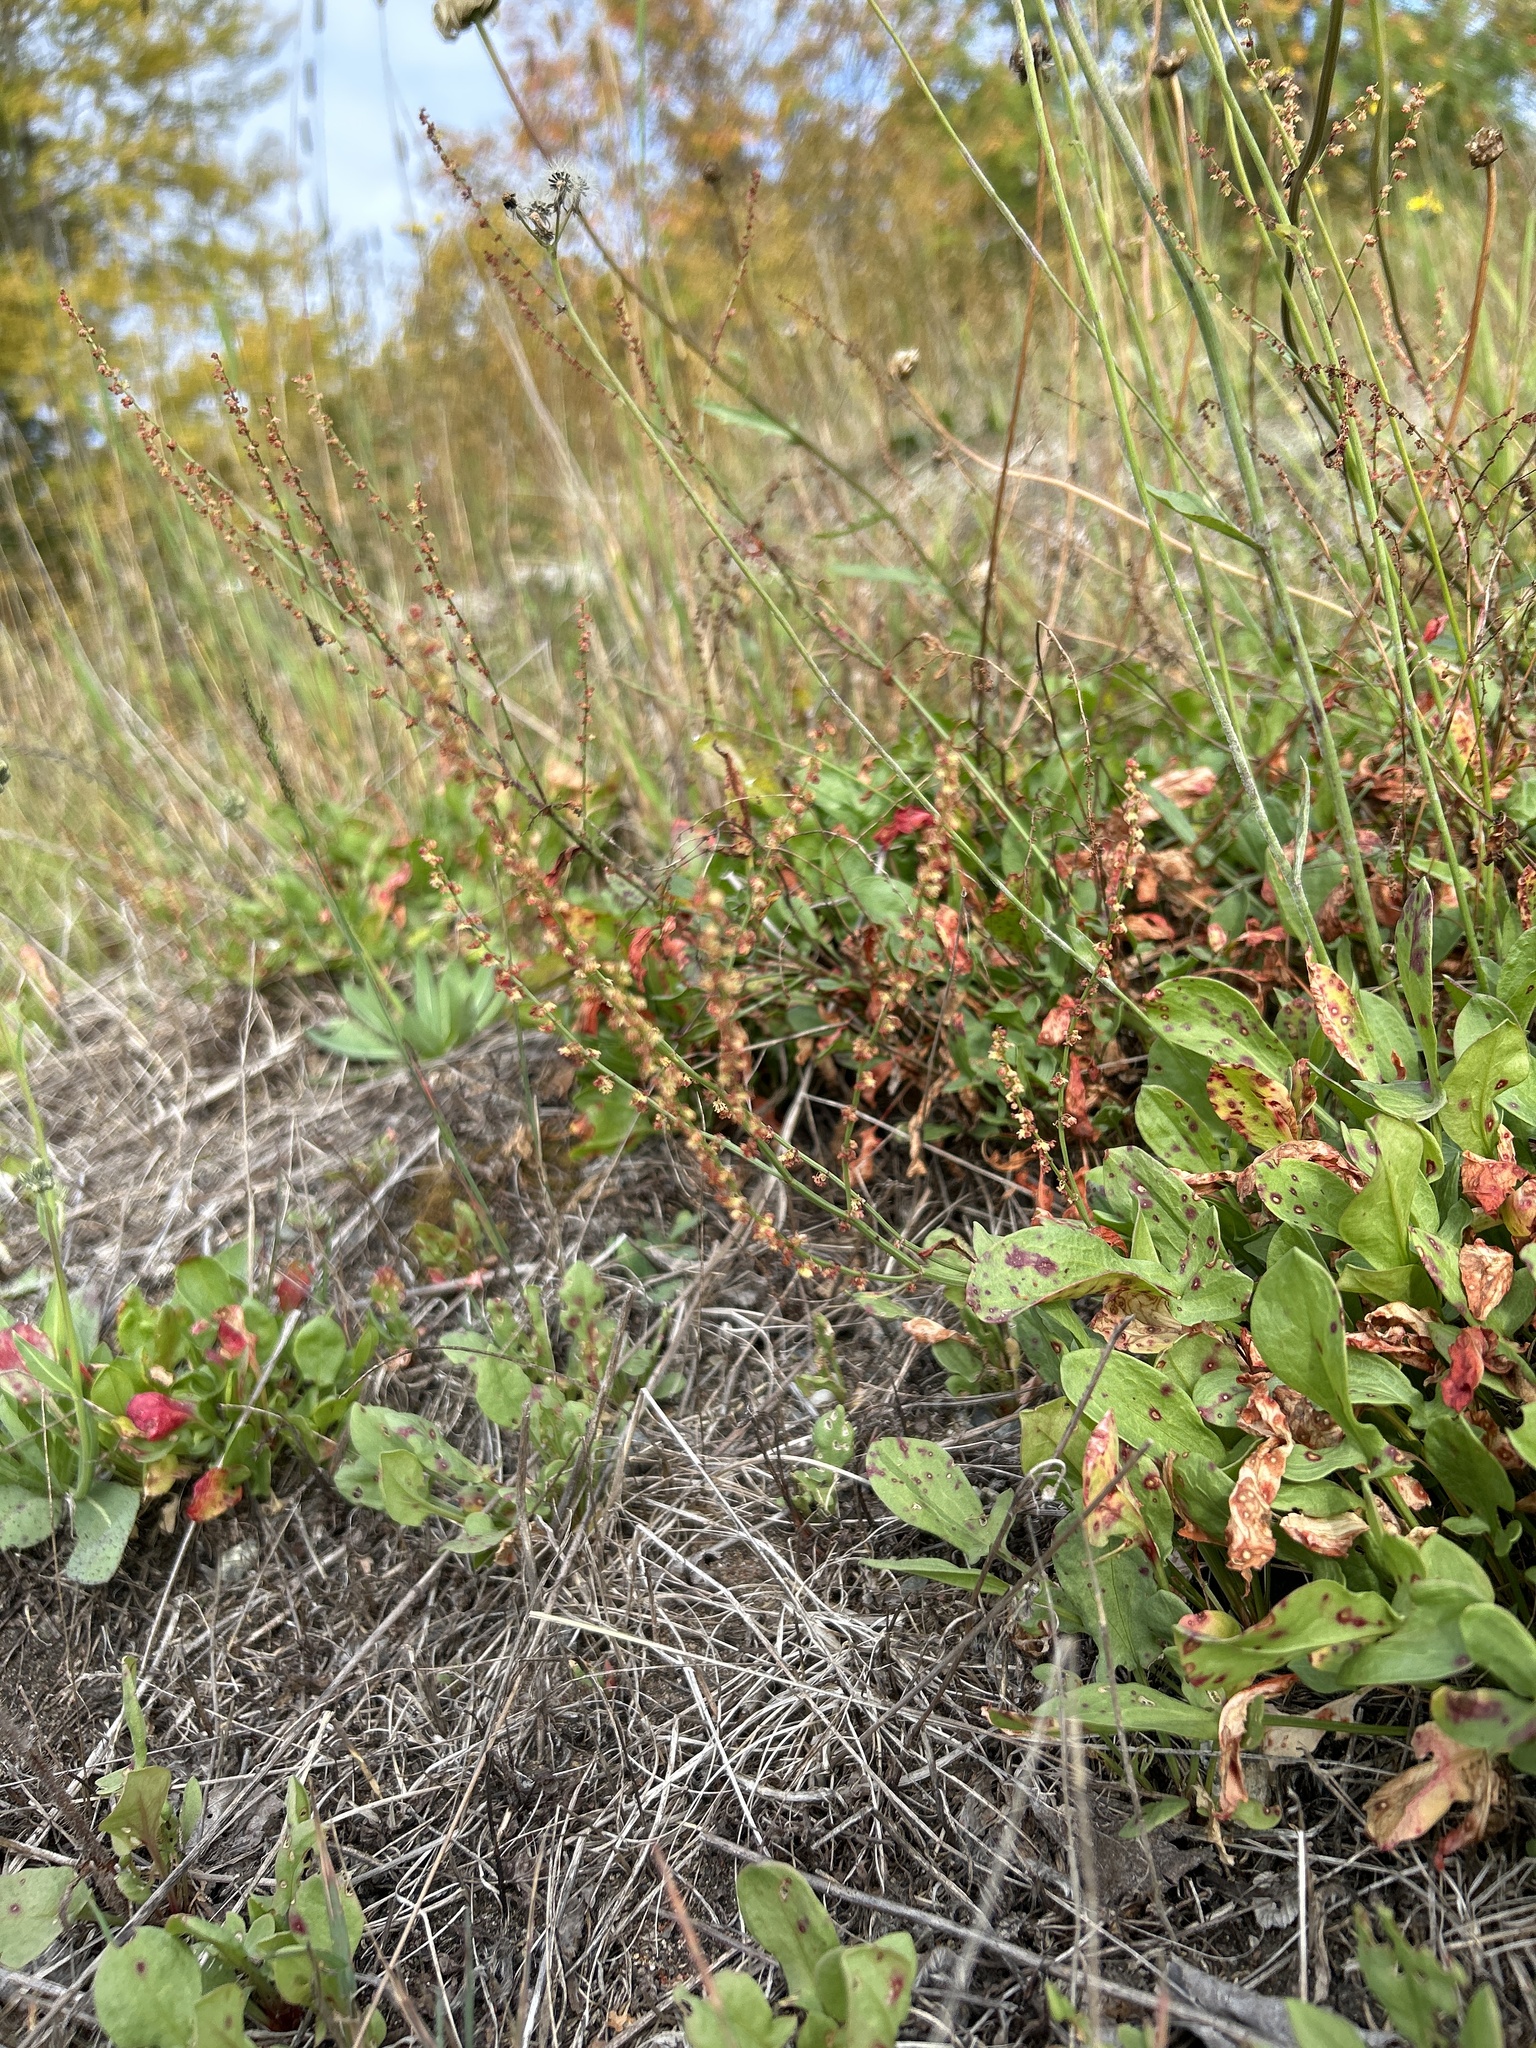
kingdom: Plantae
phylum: Tracheophyta
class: Magnoliopsida
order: Caryophyllales
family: Polygonaceae
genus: Rumex
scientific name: Rumex acetosella
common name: Common sheep sorrel
